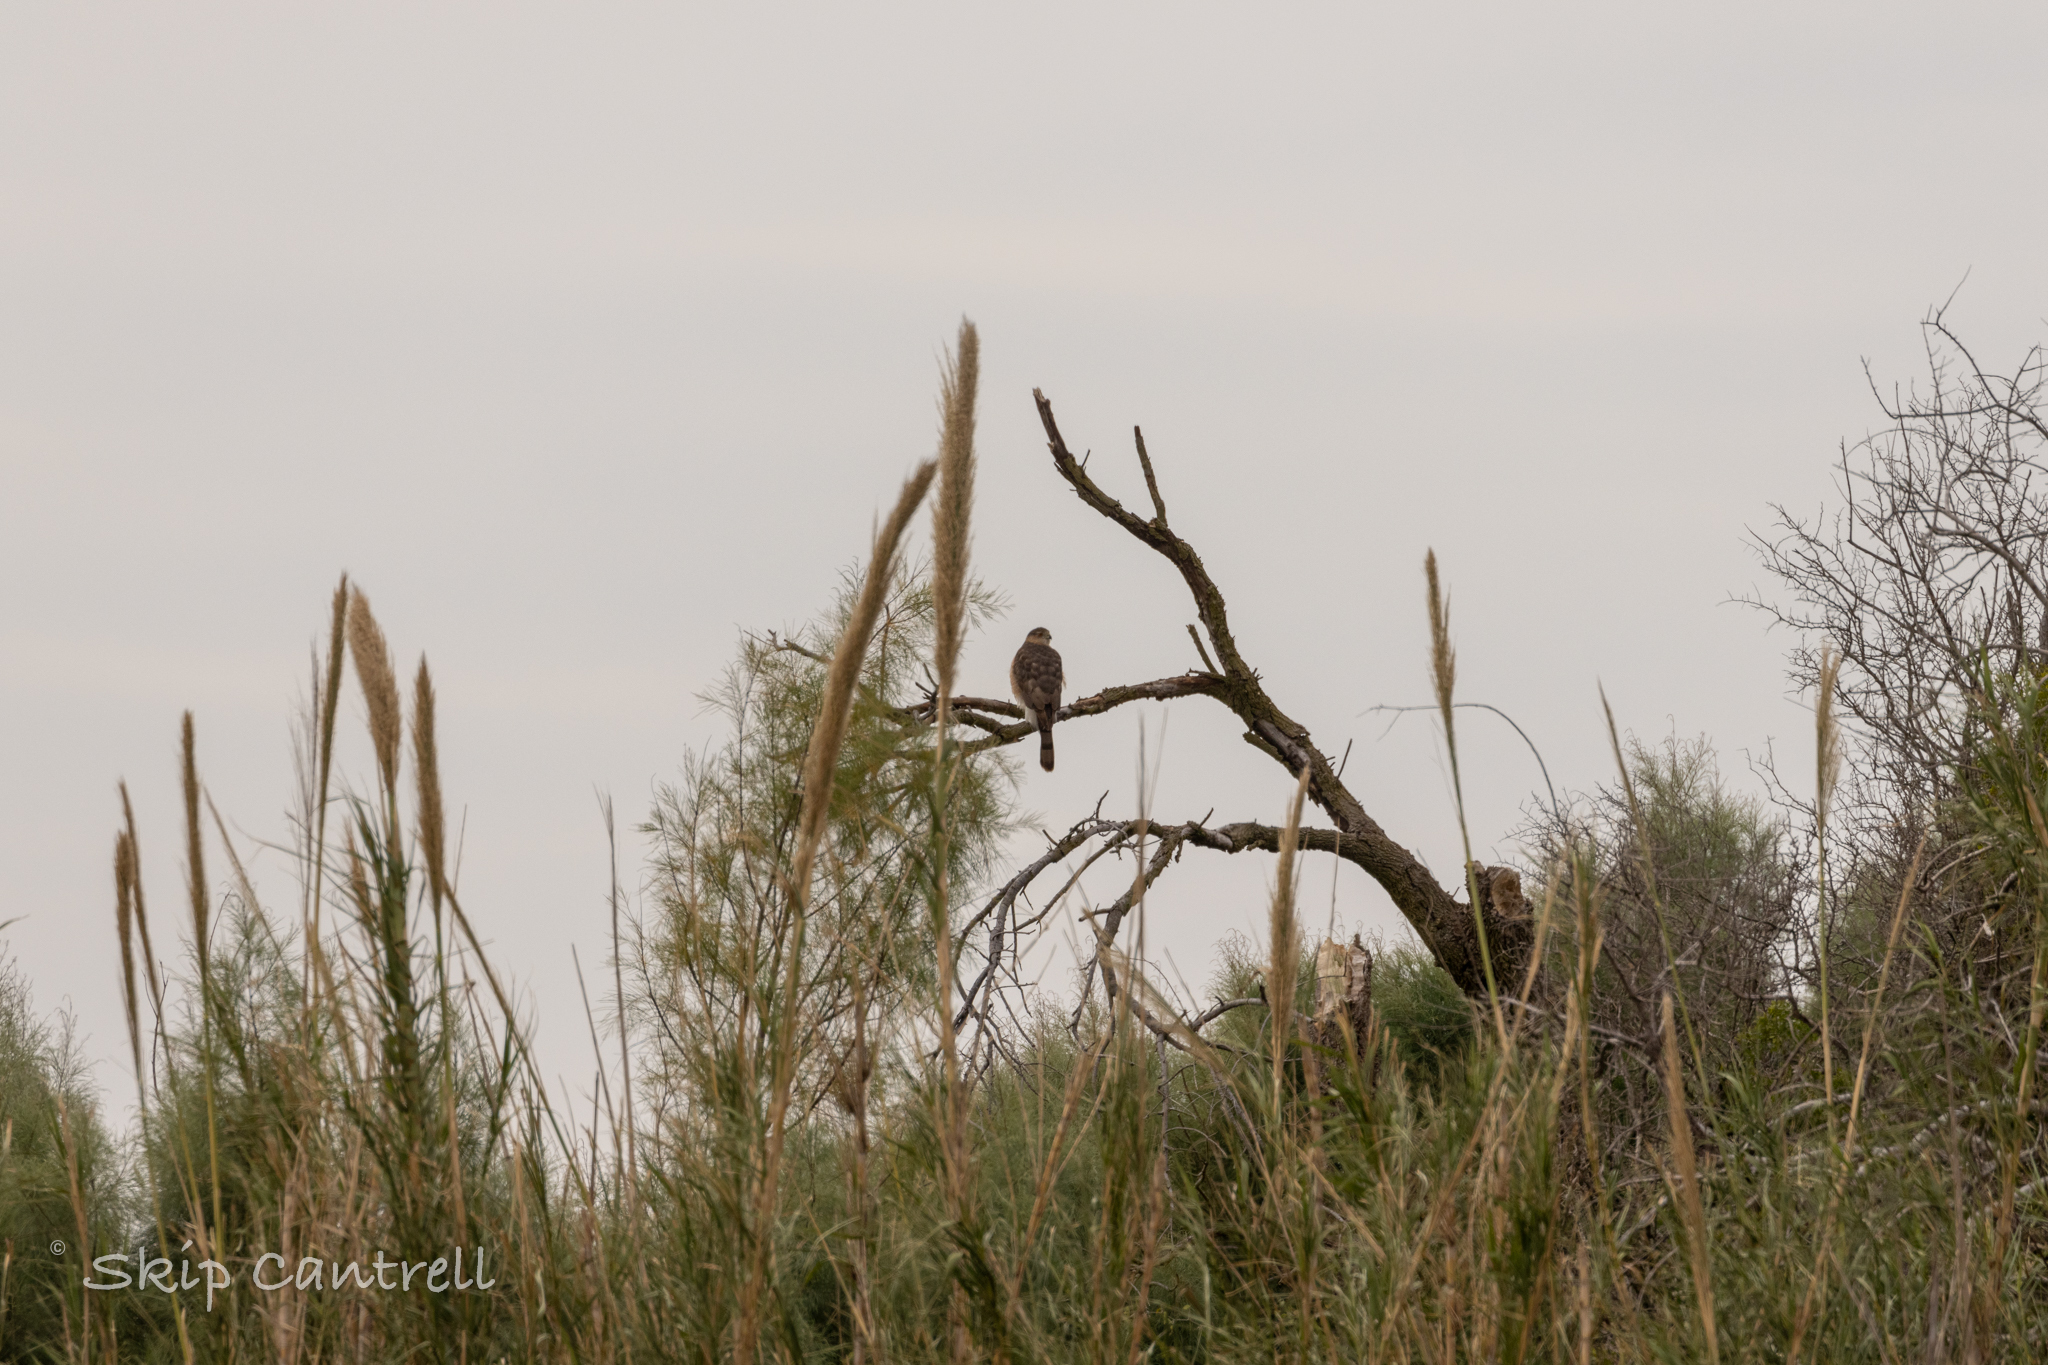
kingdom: Animalia
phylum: Chordata
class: Aves
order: Accipitriformes
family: Accipitridae
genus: Accipiter
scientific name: Accipiter cooperii
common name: Cooper's hawk
